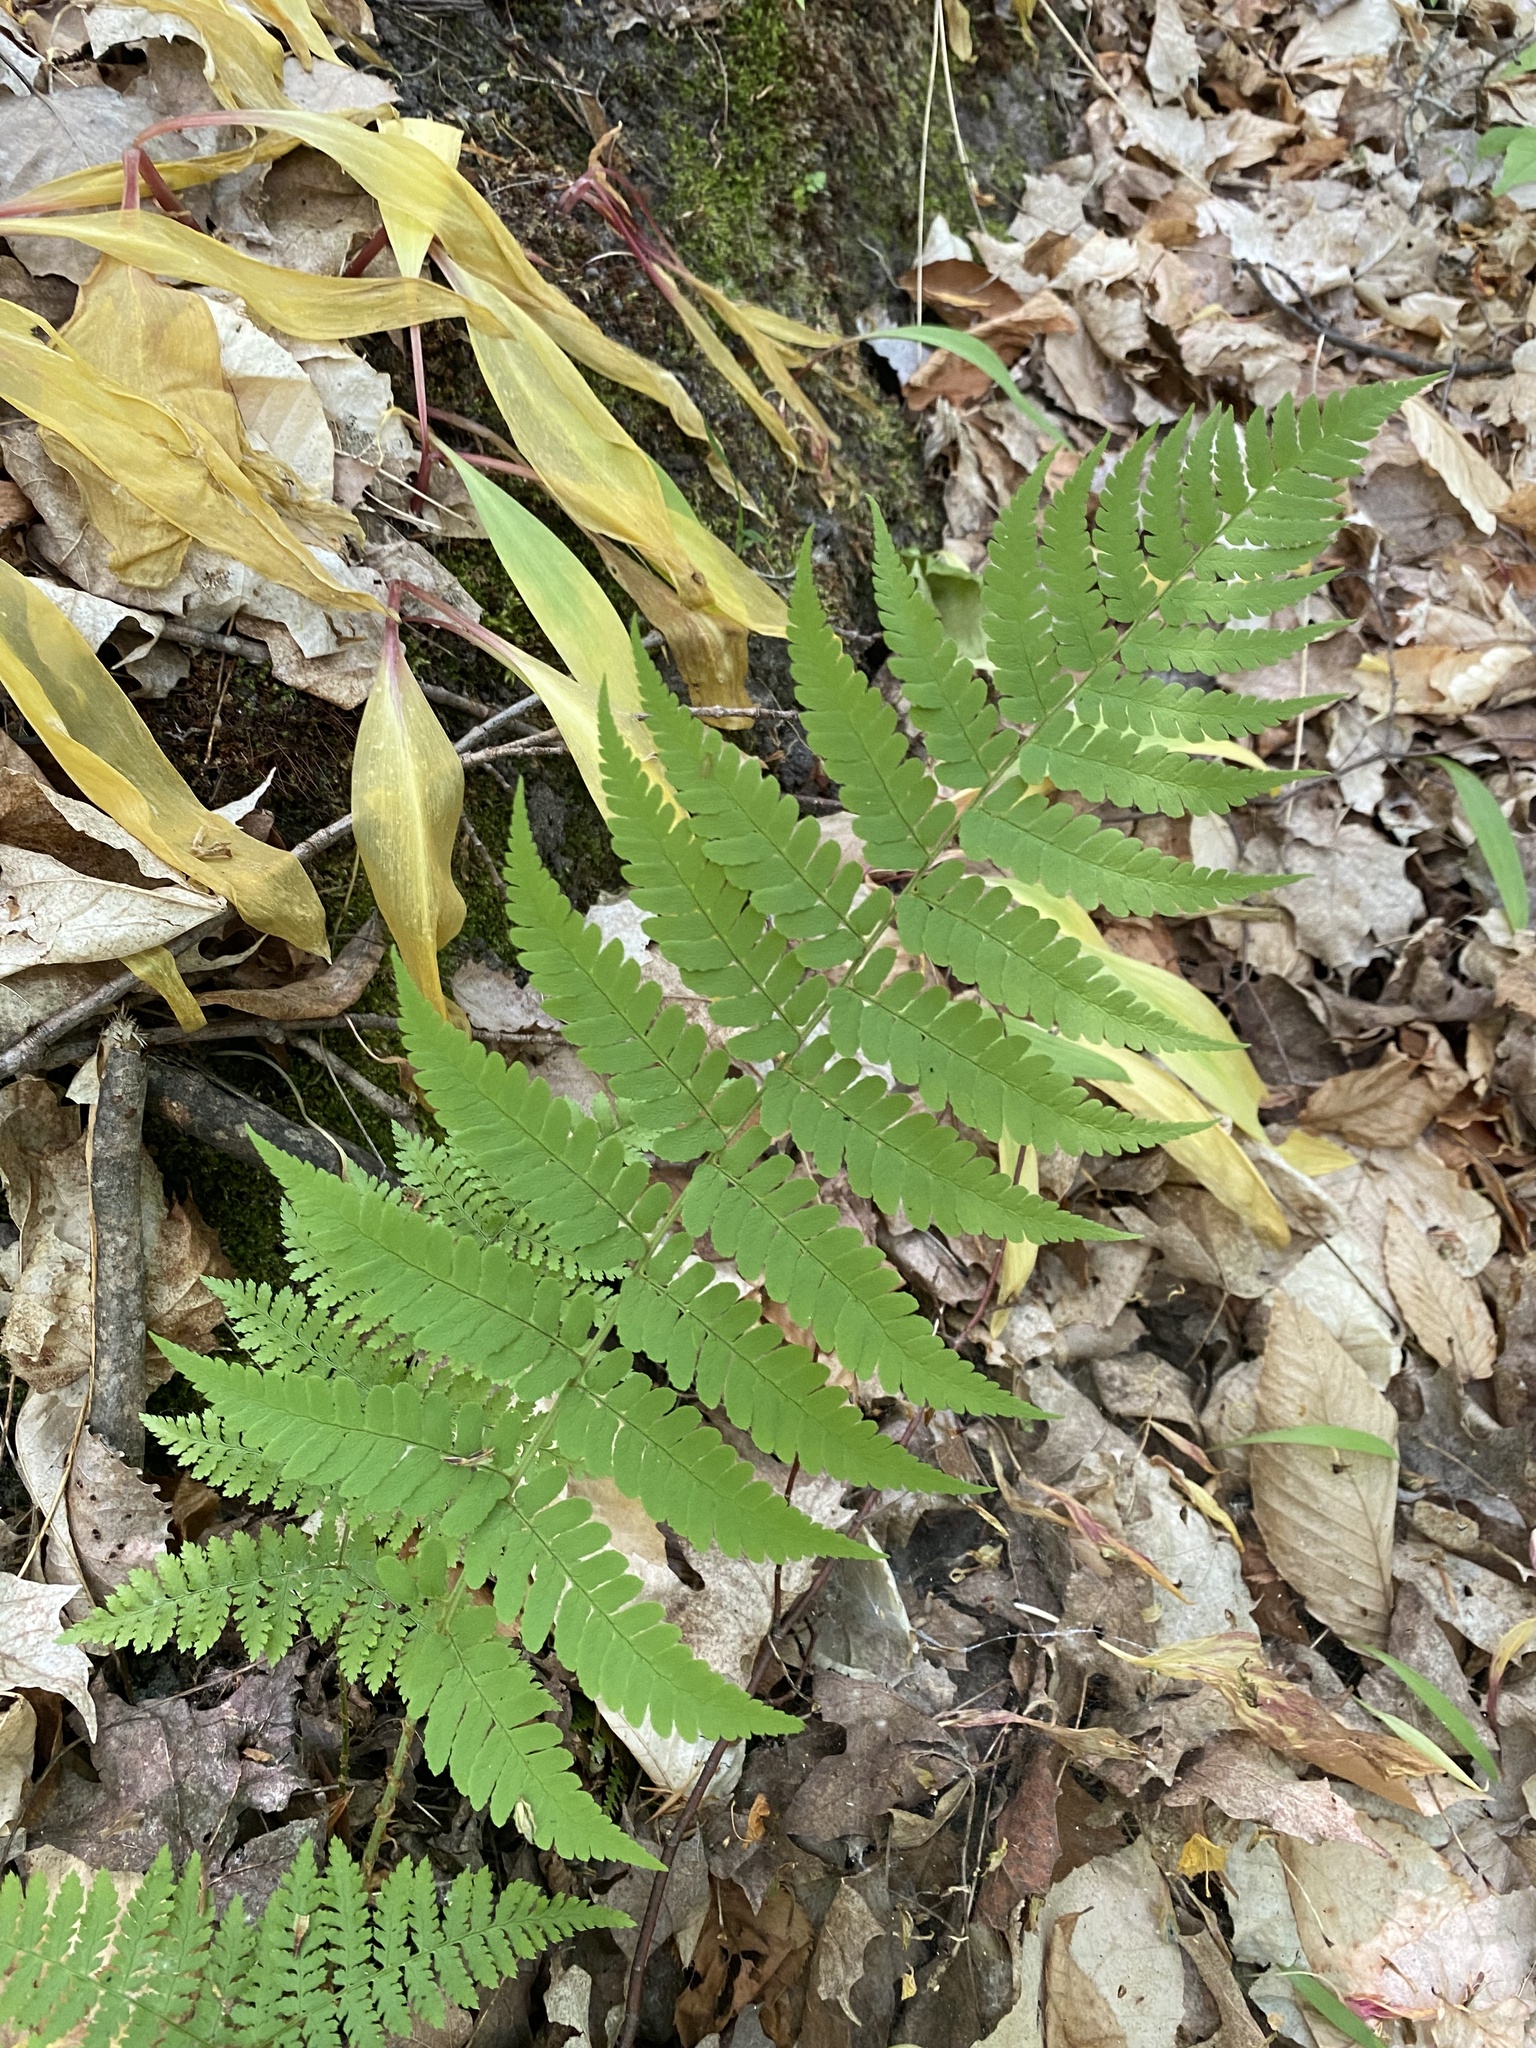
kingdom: Plantae
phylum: Tracheophyta
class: Polypodiopsida
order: Polypodiales
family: Dryopteridaceae
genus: Dryopteris
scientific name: Dryopteris marginalis
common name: Marginal wood fern
